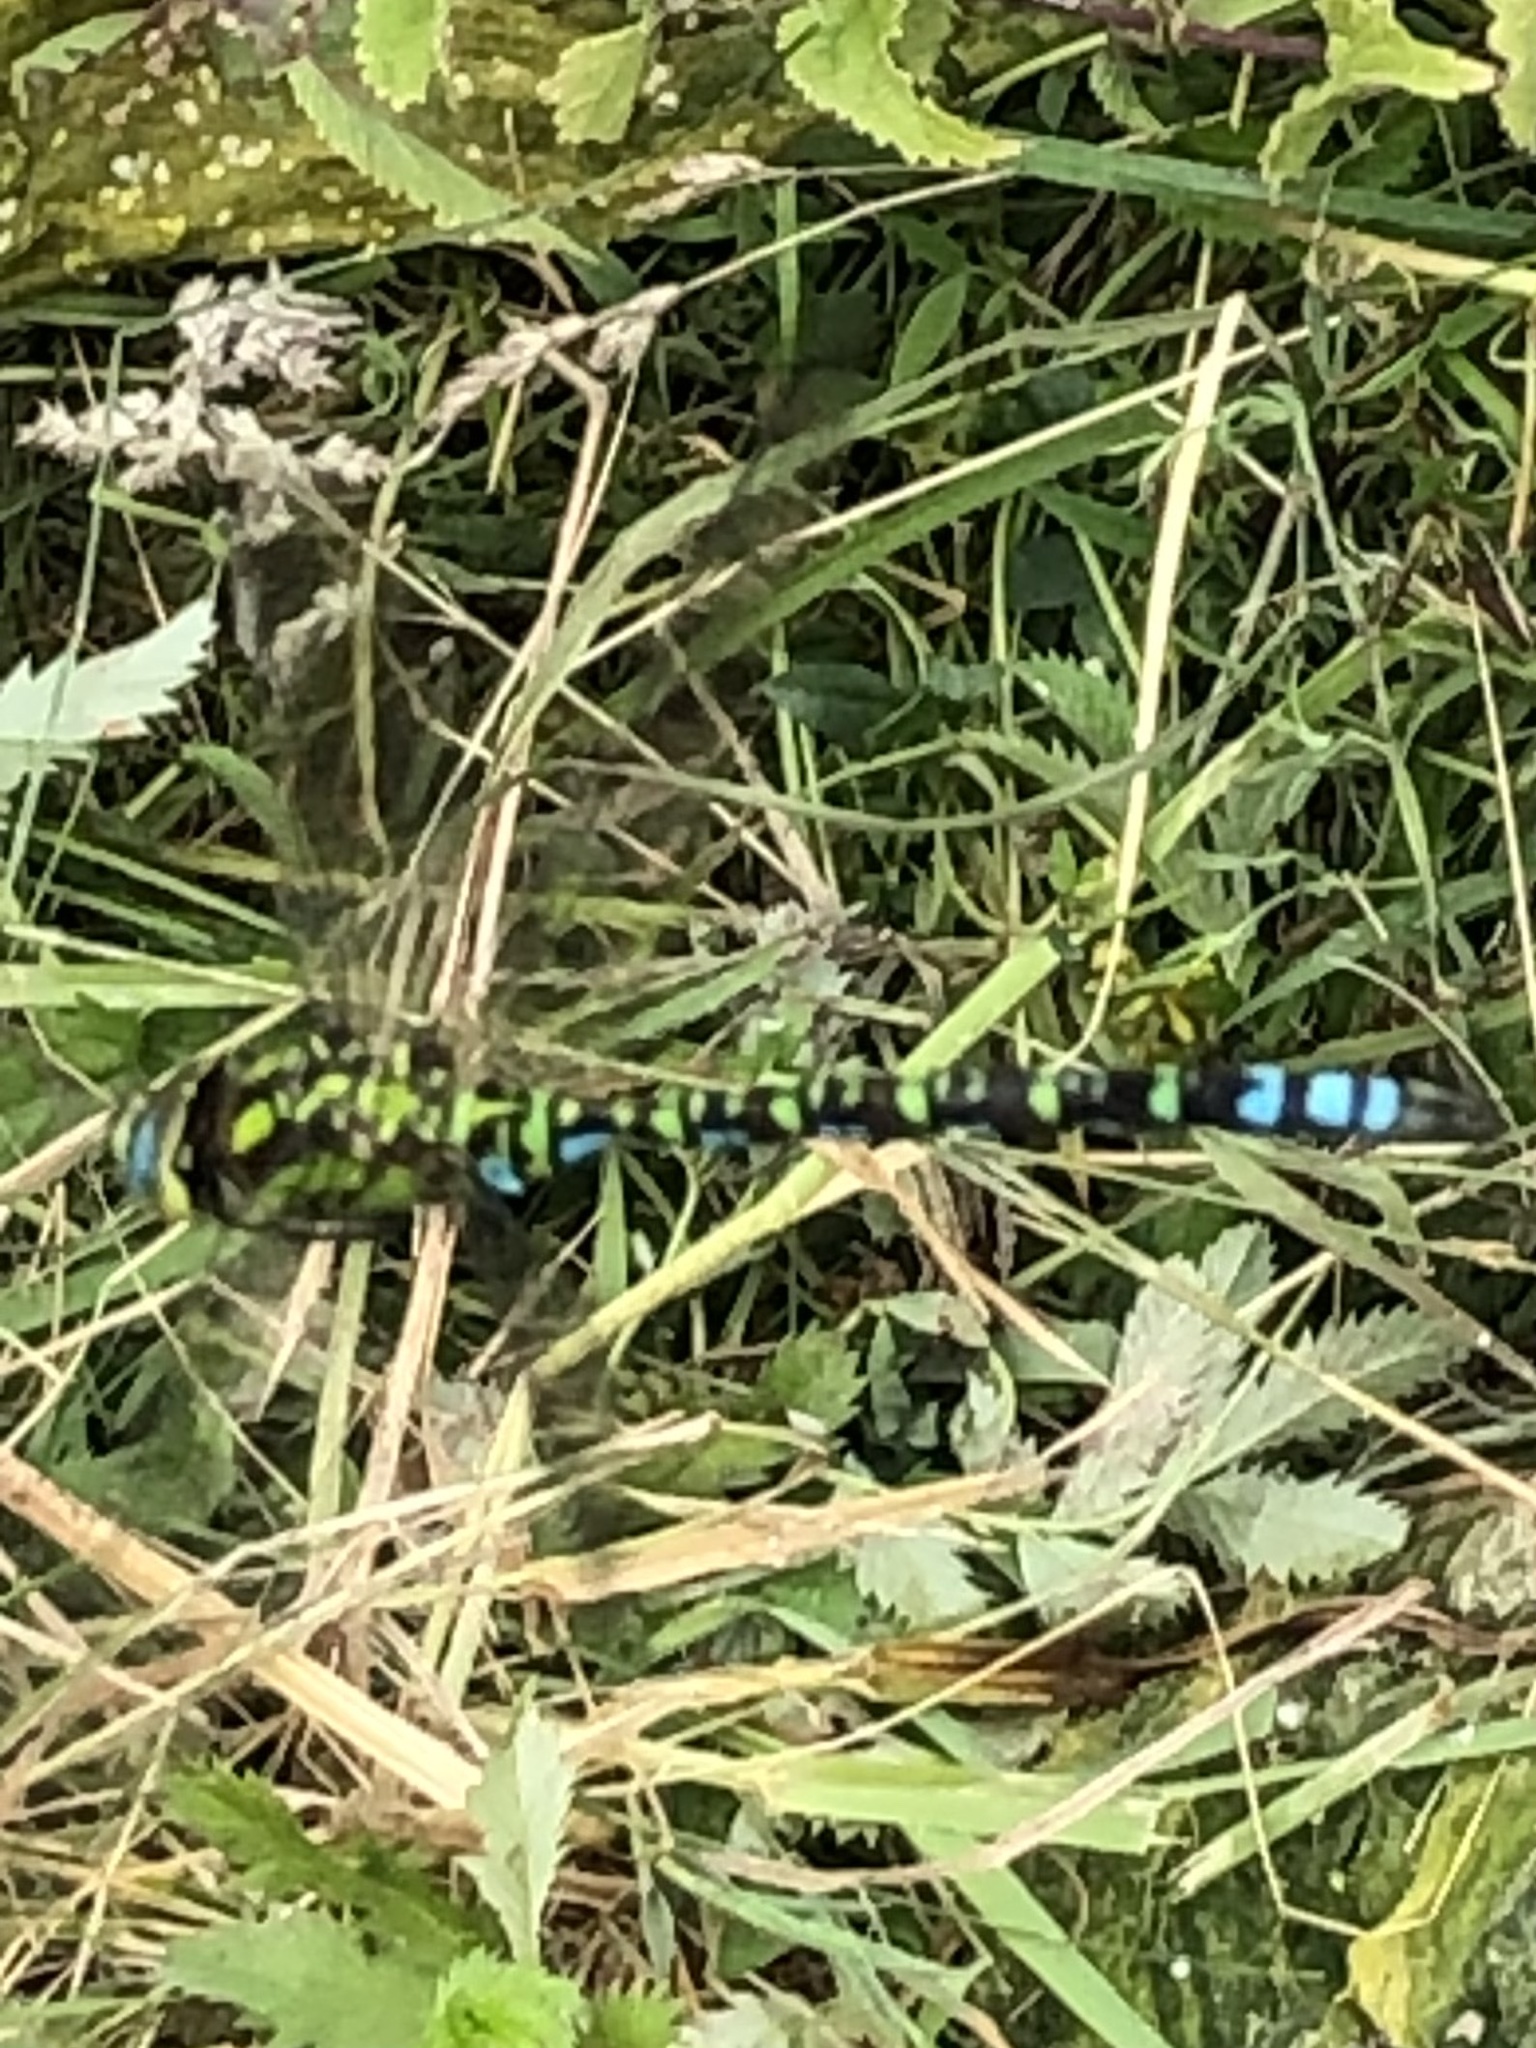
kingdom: Animalia
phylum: Arthropoda
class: Insecta
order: Odonata
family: Aeshnidae
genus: Aeshna
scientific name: Aeshna cyanea
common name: Southern hawker
